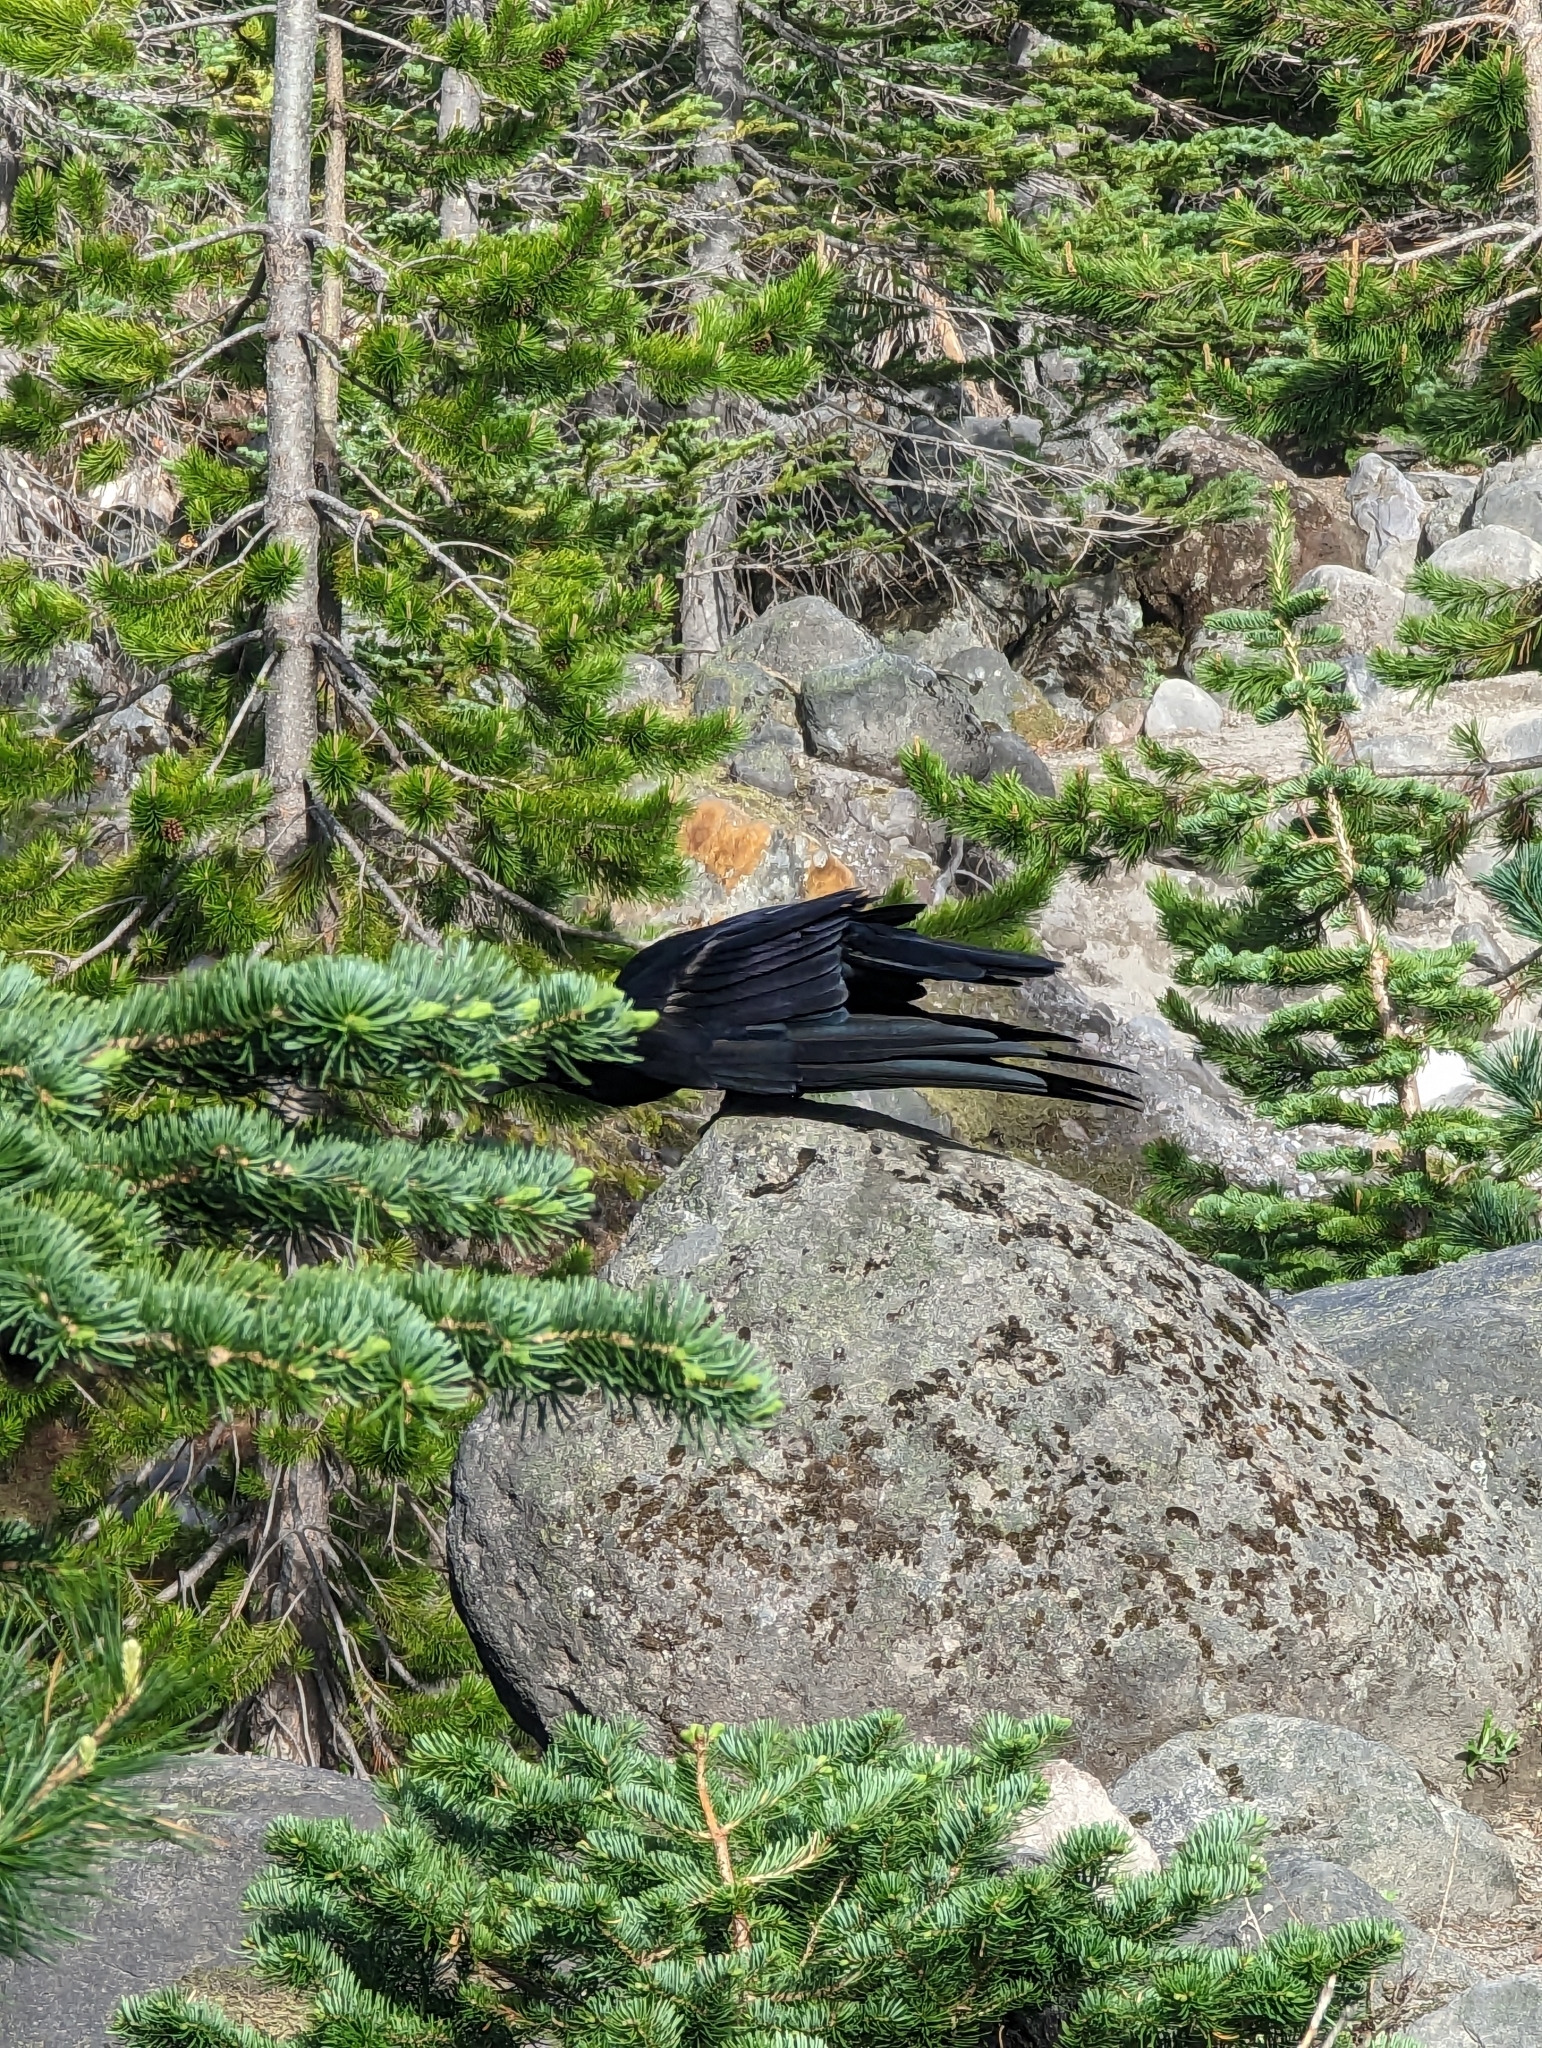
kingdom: Animalia
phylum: Chordata
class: Aves
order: Passeriformes
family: Corvidae
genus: Corvus
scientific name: Corvus corax
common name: Common raven
